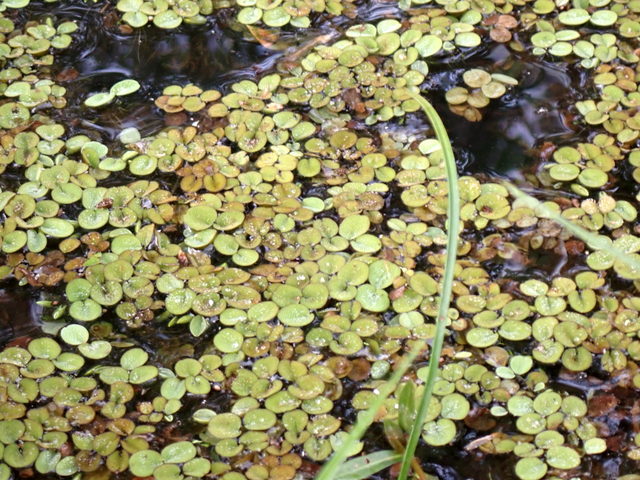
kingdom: Plantae
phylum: Tracheophyta
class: Polypodiopsida
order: Salviniales
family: Salviniaceae
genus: Salvinia
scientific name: Salvinia minima
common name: Water spangles
